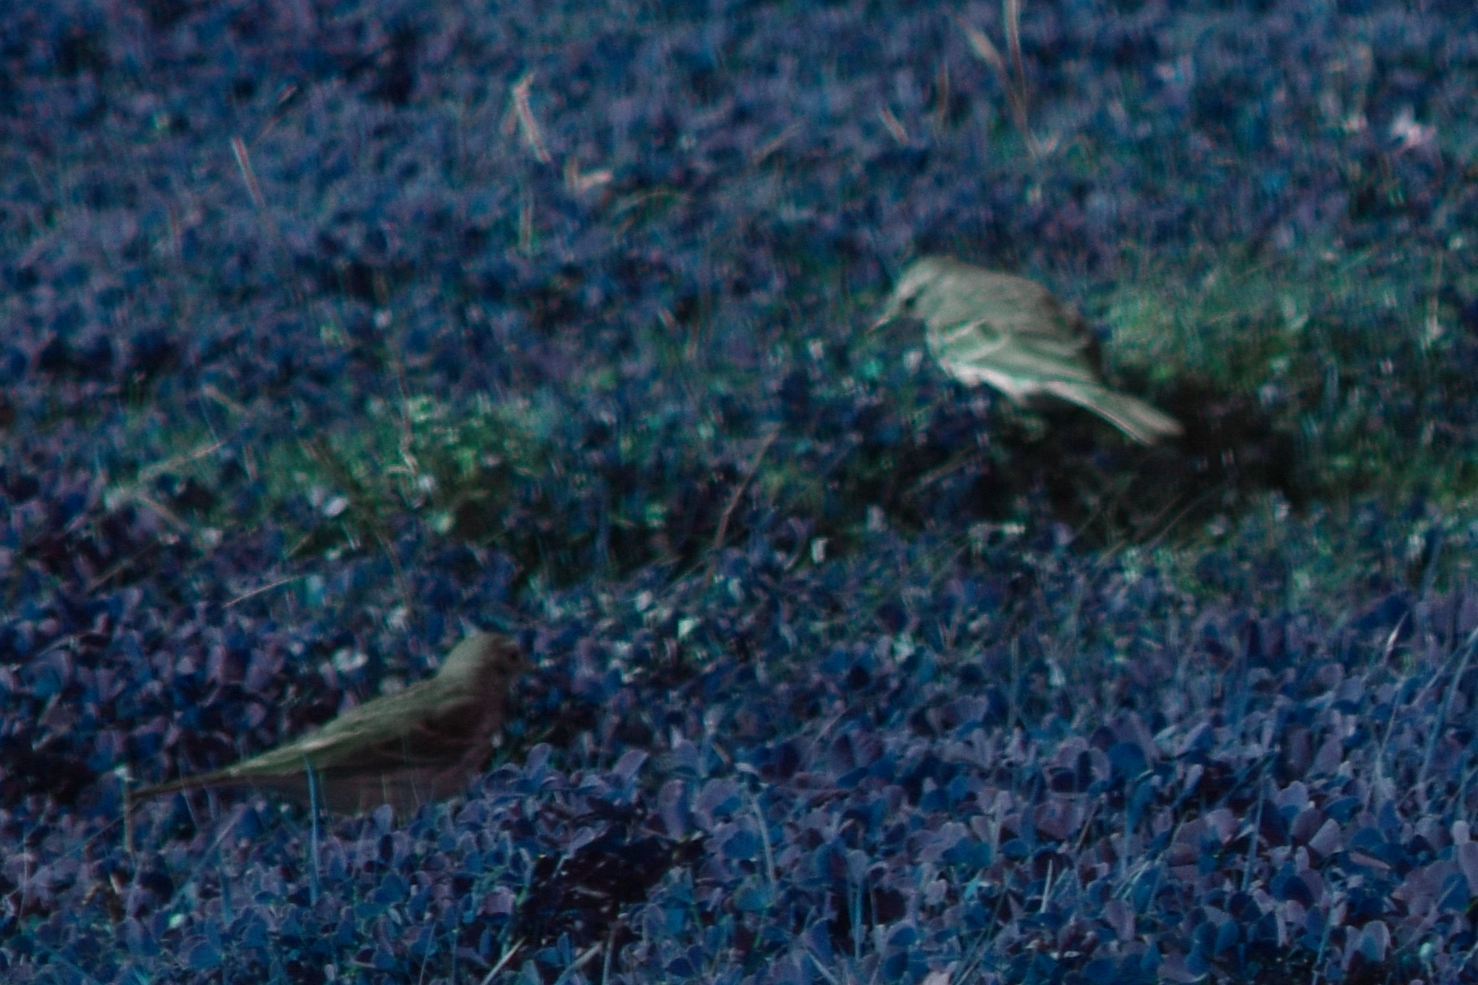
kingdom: Animalia
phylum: Chordata
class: Aves
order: Passeriformes
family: Motacillidae
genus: Anthus
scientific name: Anthus rubescens
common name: Buff-bellied pipit
